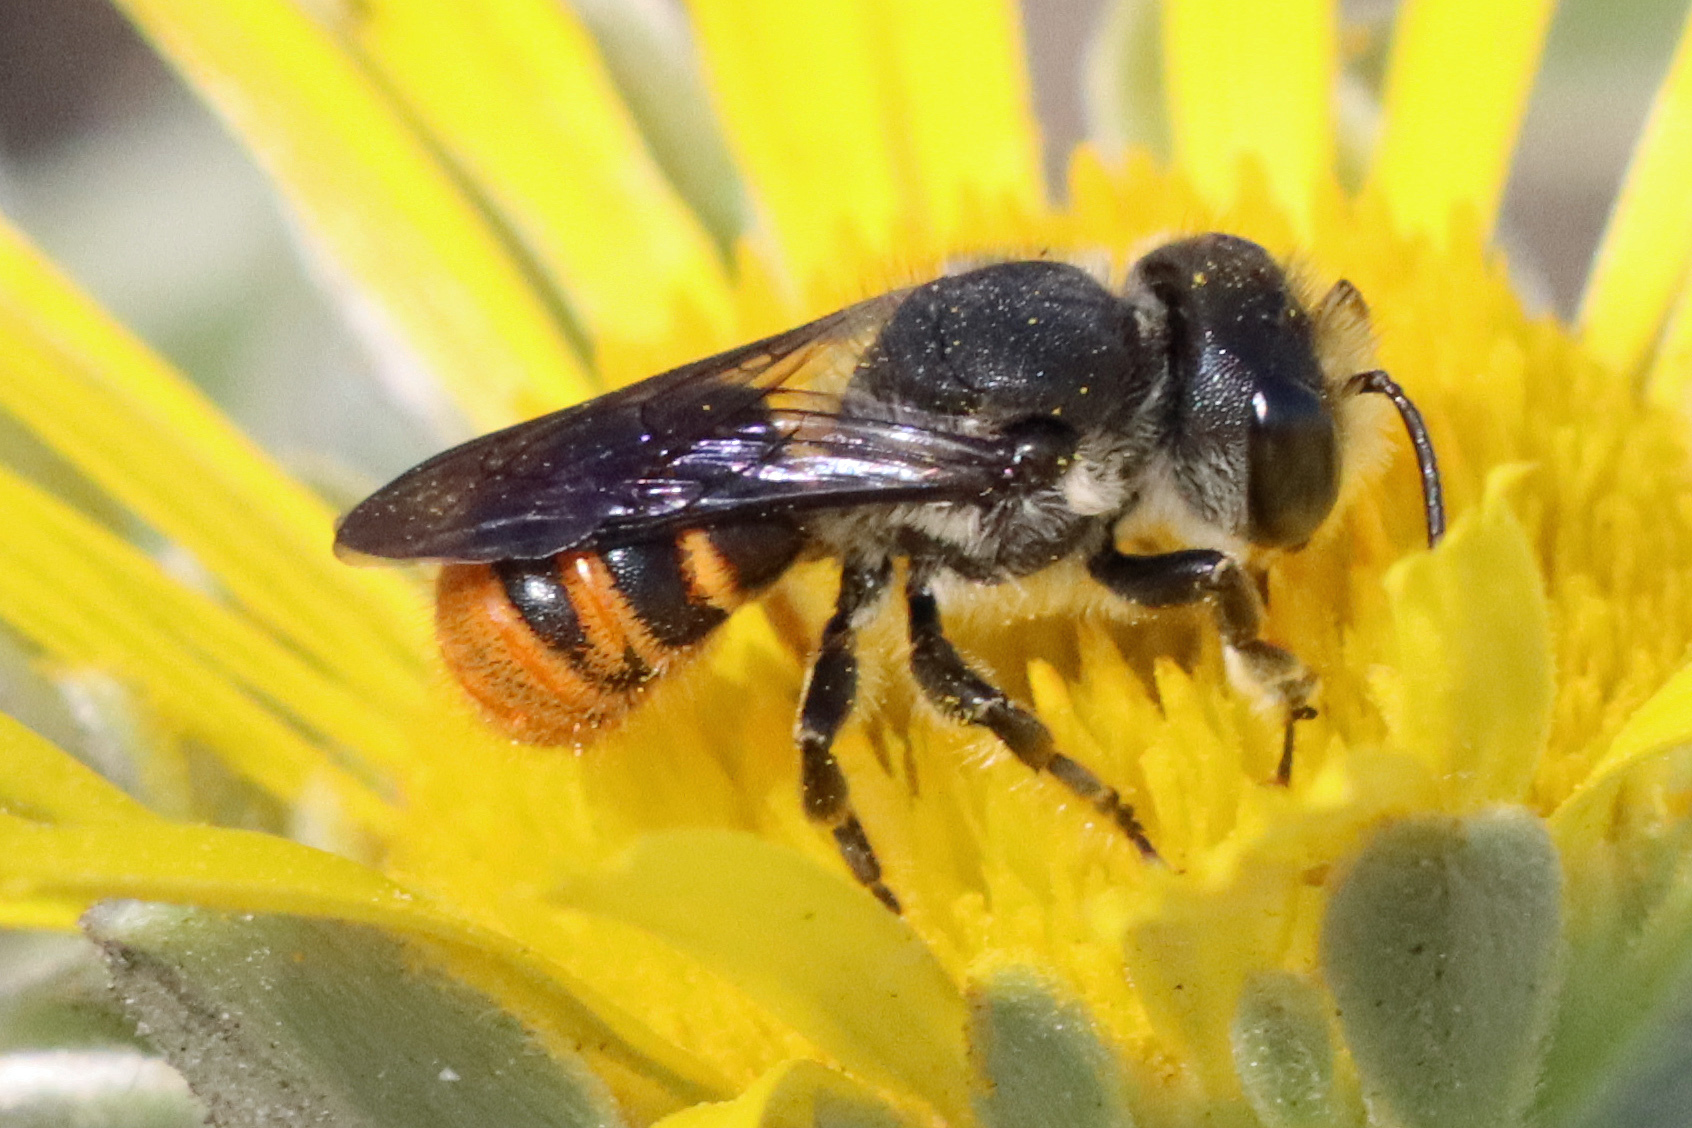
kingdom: Animalia
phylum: Arthropoda
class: Insecta
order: Hymenoptera
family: Megachilidae
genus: Megachile
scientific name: Megachile otomita
